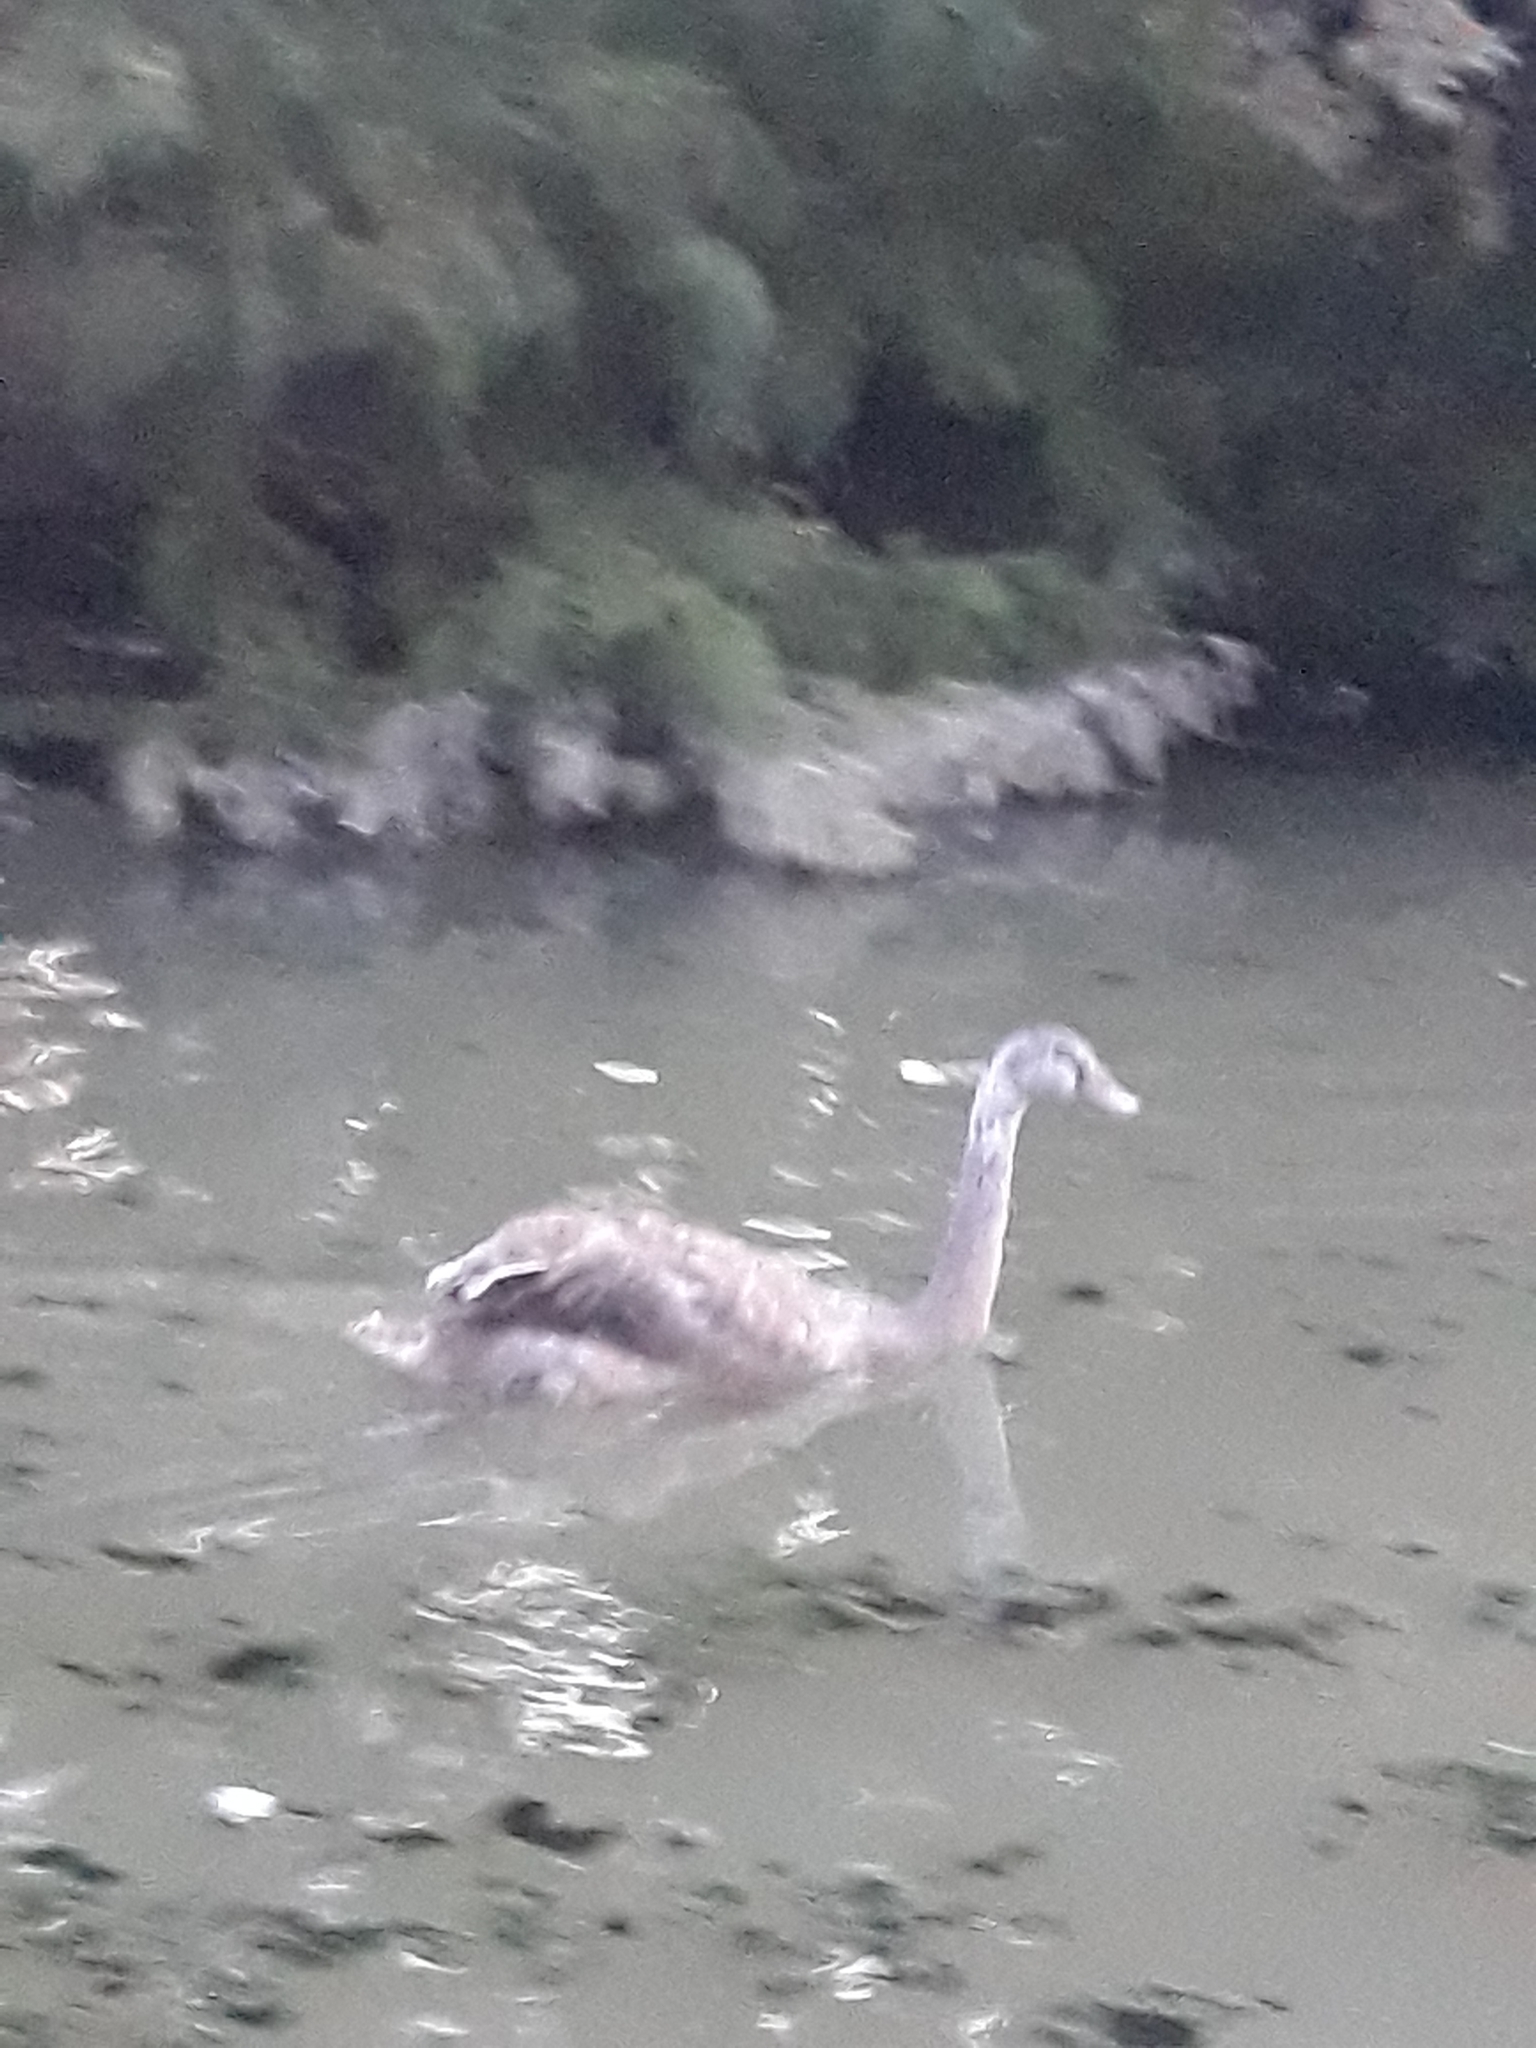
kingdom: Animalia
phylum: Chordata
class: Aves
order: Anseriformes
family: Anatidae
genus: Cygnus
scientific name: Cygnus olor
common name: Mute swan
